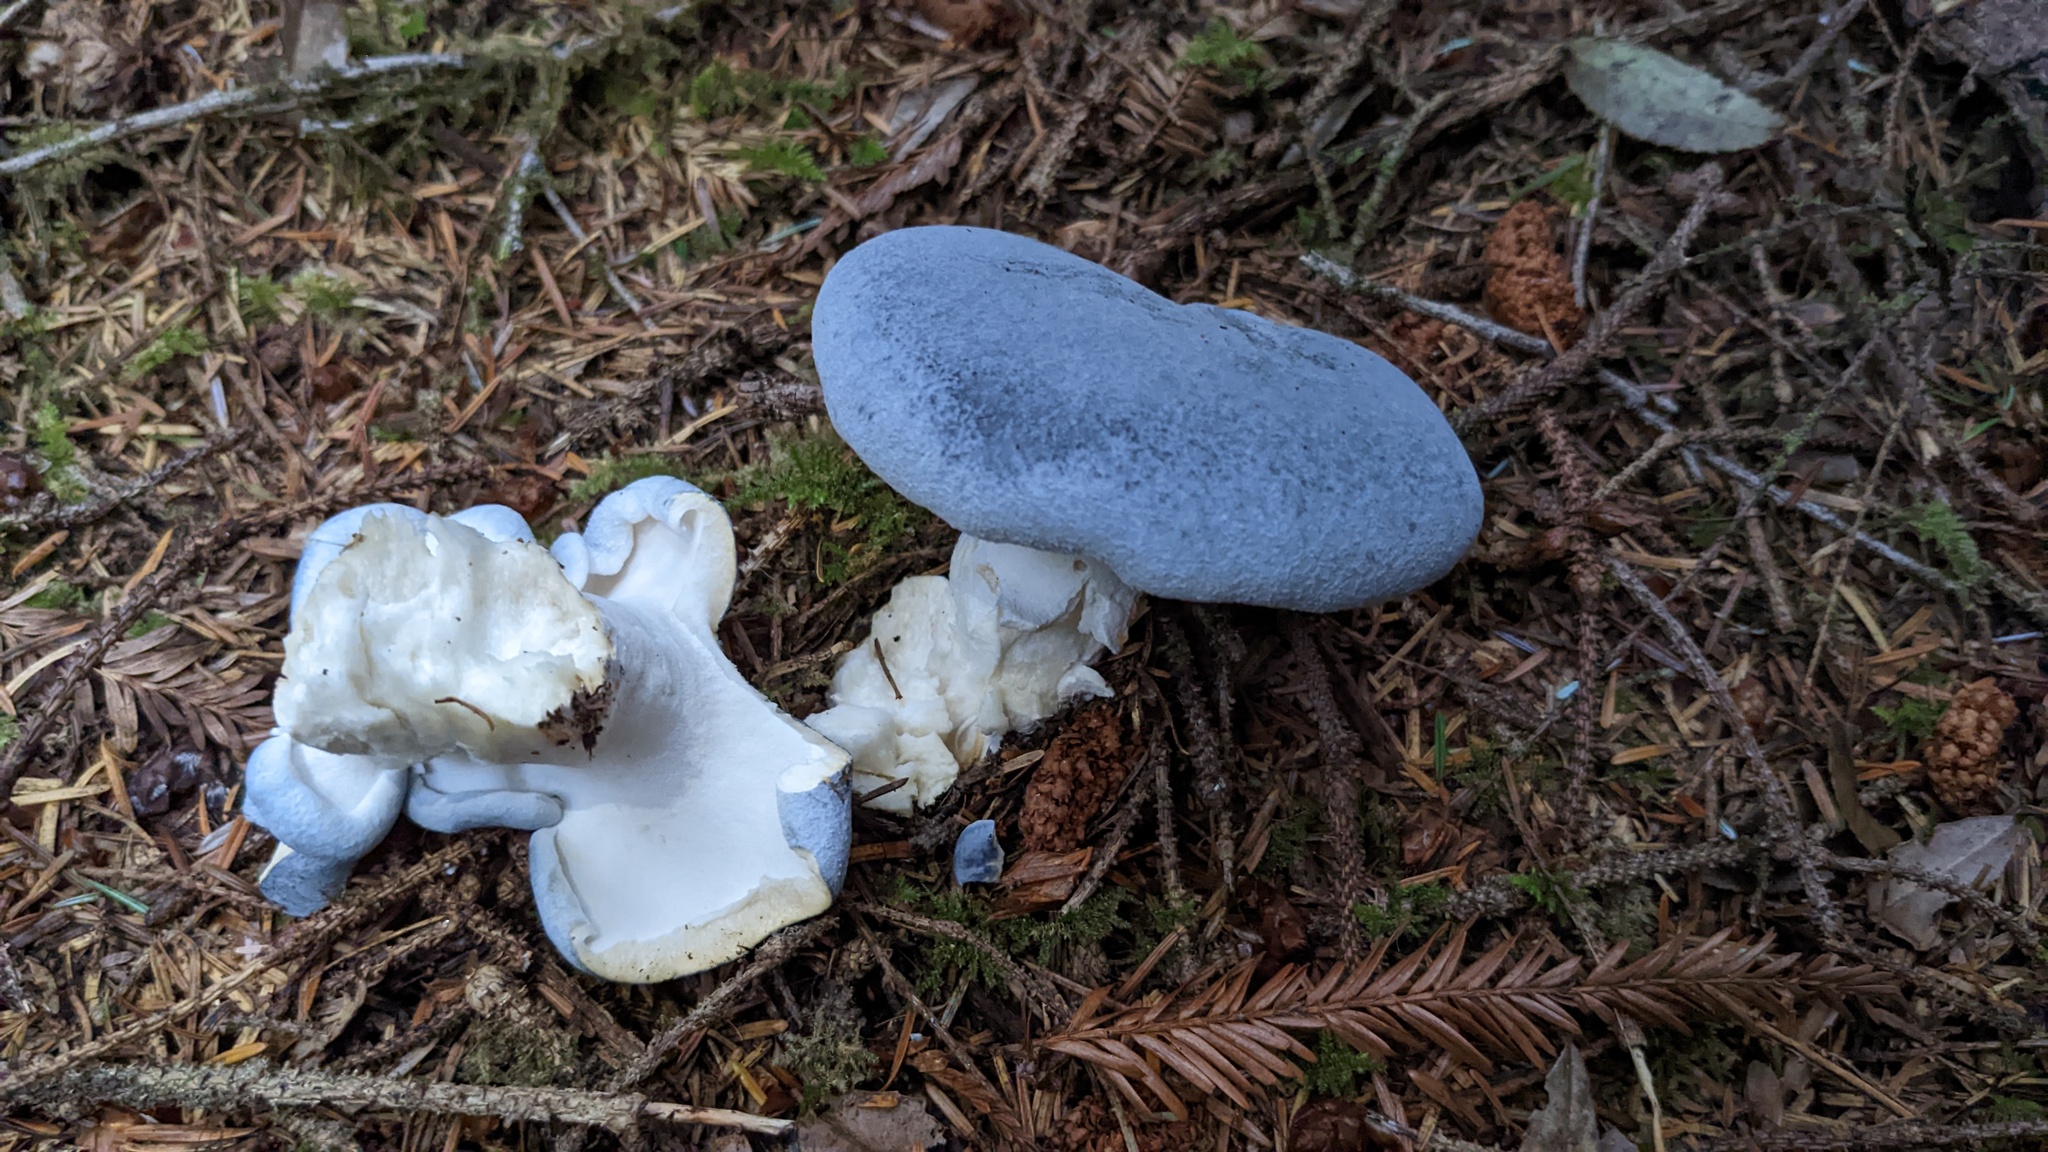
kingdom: Fungi
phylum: Basidiomycota
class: Agaricomycetes
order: Russulales
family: Albatrellaceae
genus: Albatrellopsis
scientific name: Albatrellopsis flettii
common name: Blue polypore
